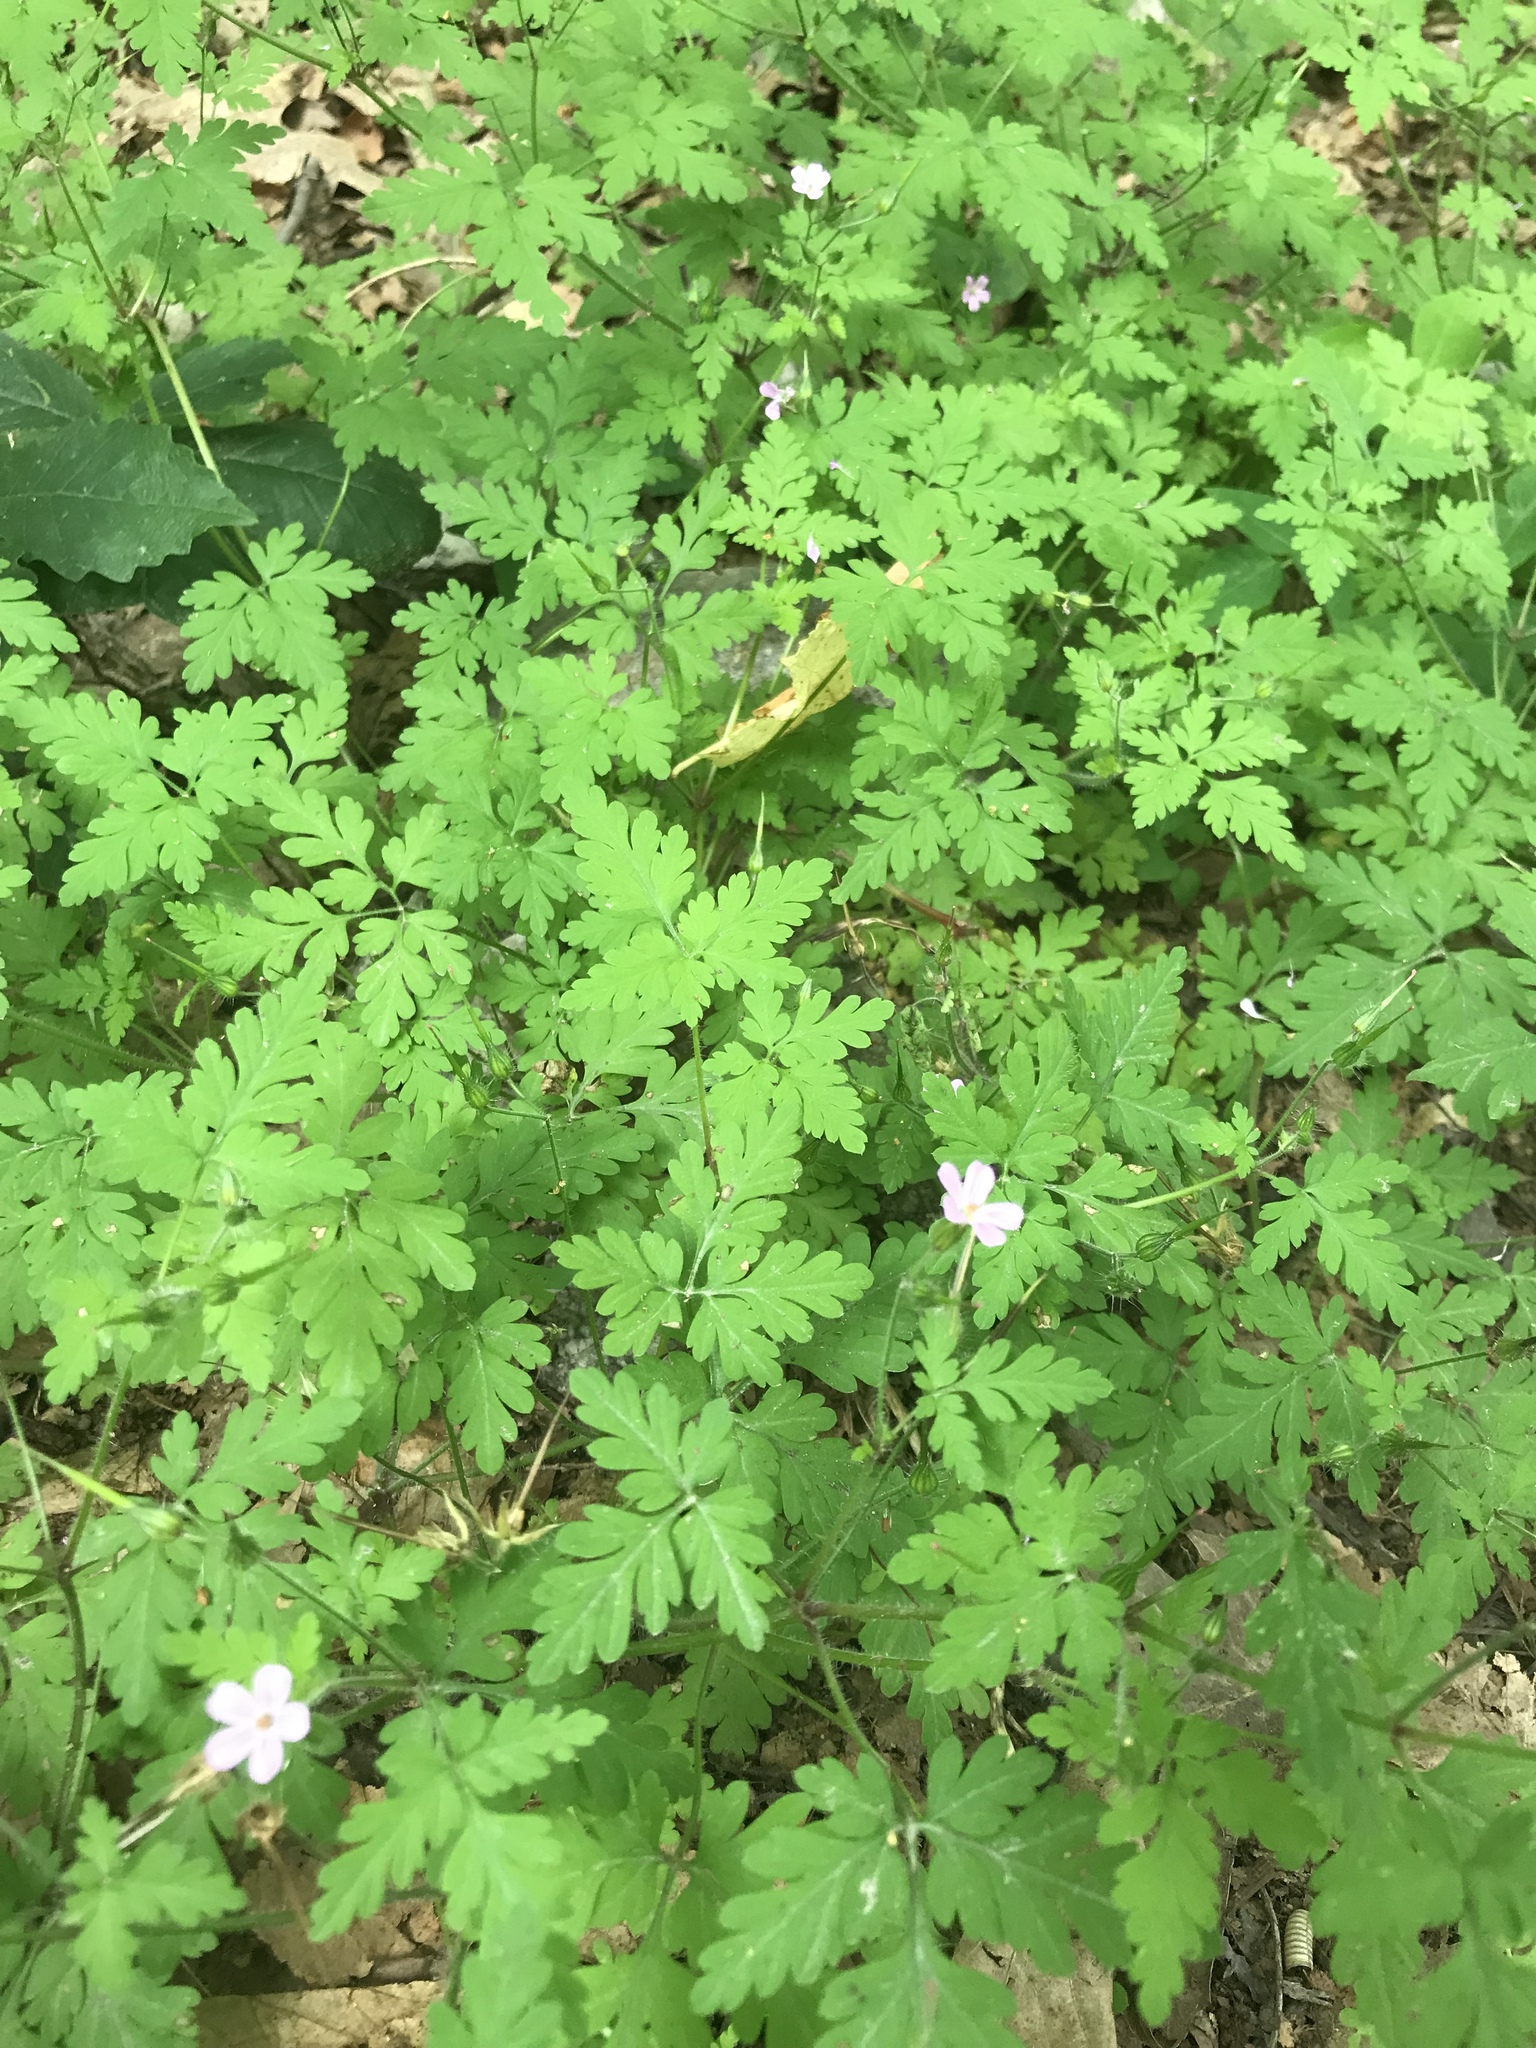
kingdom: Plantae
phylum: Tracheophyta
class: Magnoliopsida
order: Geraniales
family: Geraniaceae
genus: Geranium
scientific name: Geranium robertianum
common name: Herb-robert
